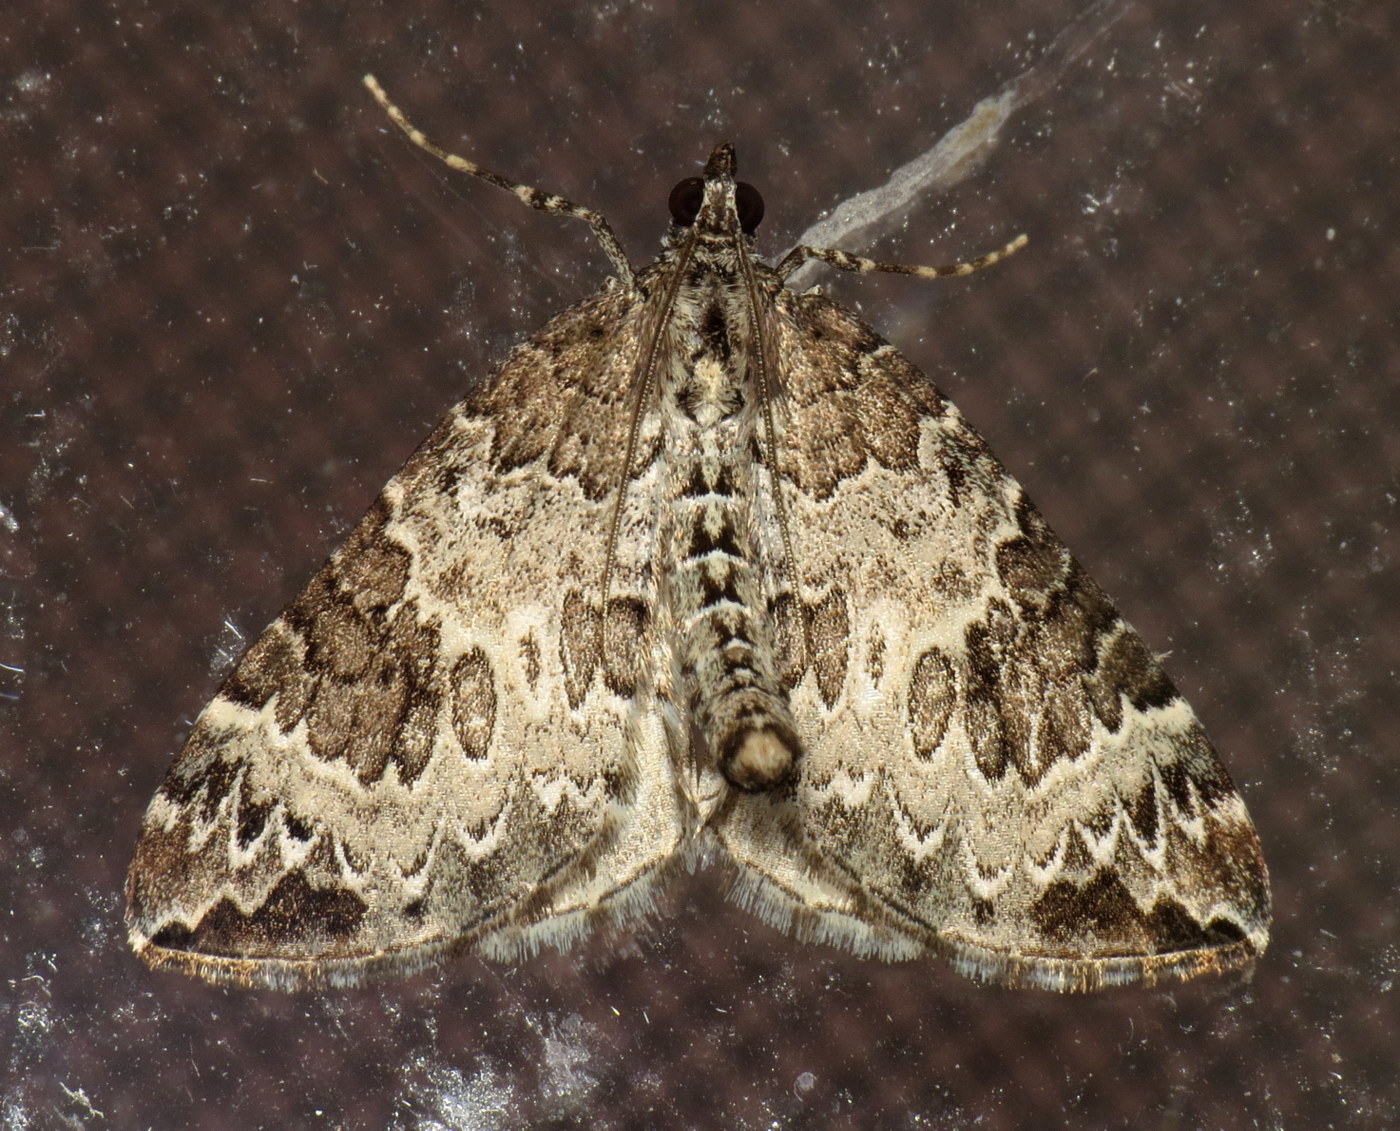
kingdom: Animalia
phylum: Arthropoda
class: Insecta
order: Lepidoptera
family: Geometridae
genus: Eulithis
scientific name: Eulithis explanata
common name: White eulithis
